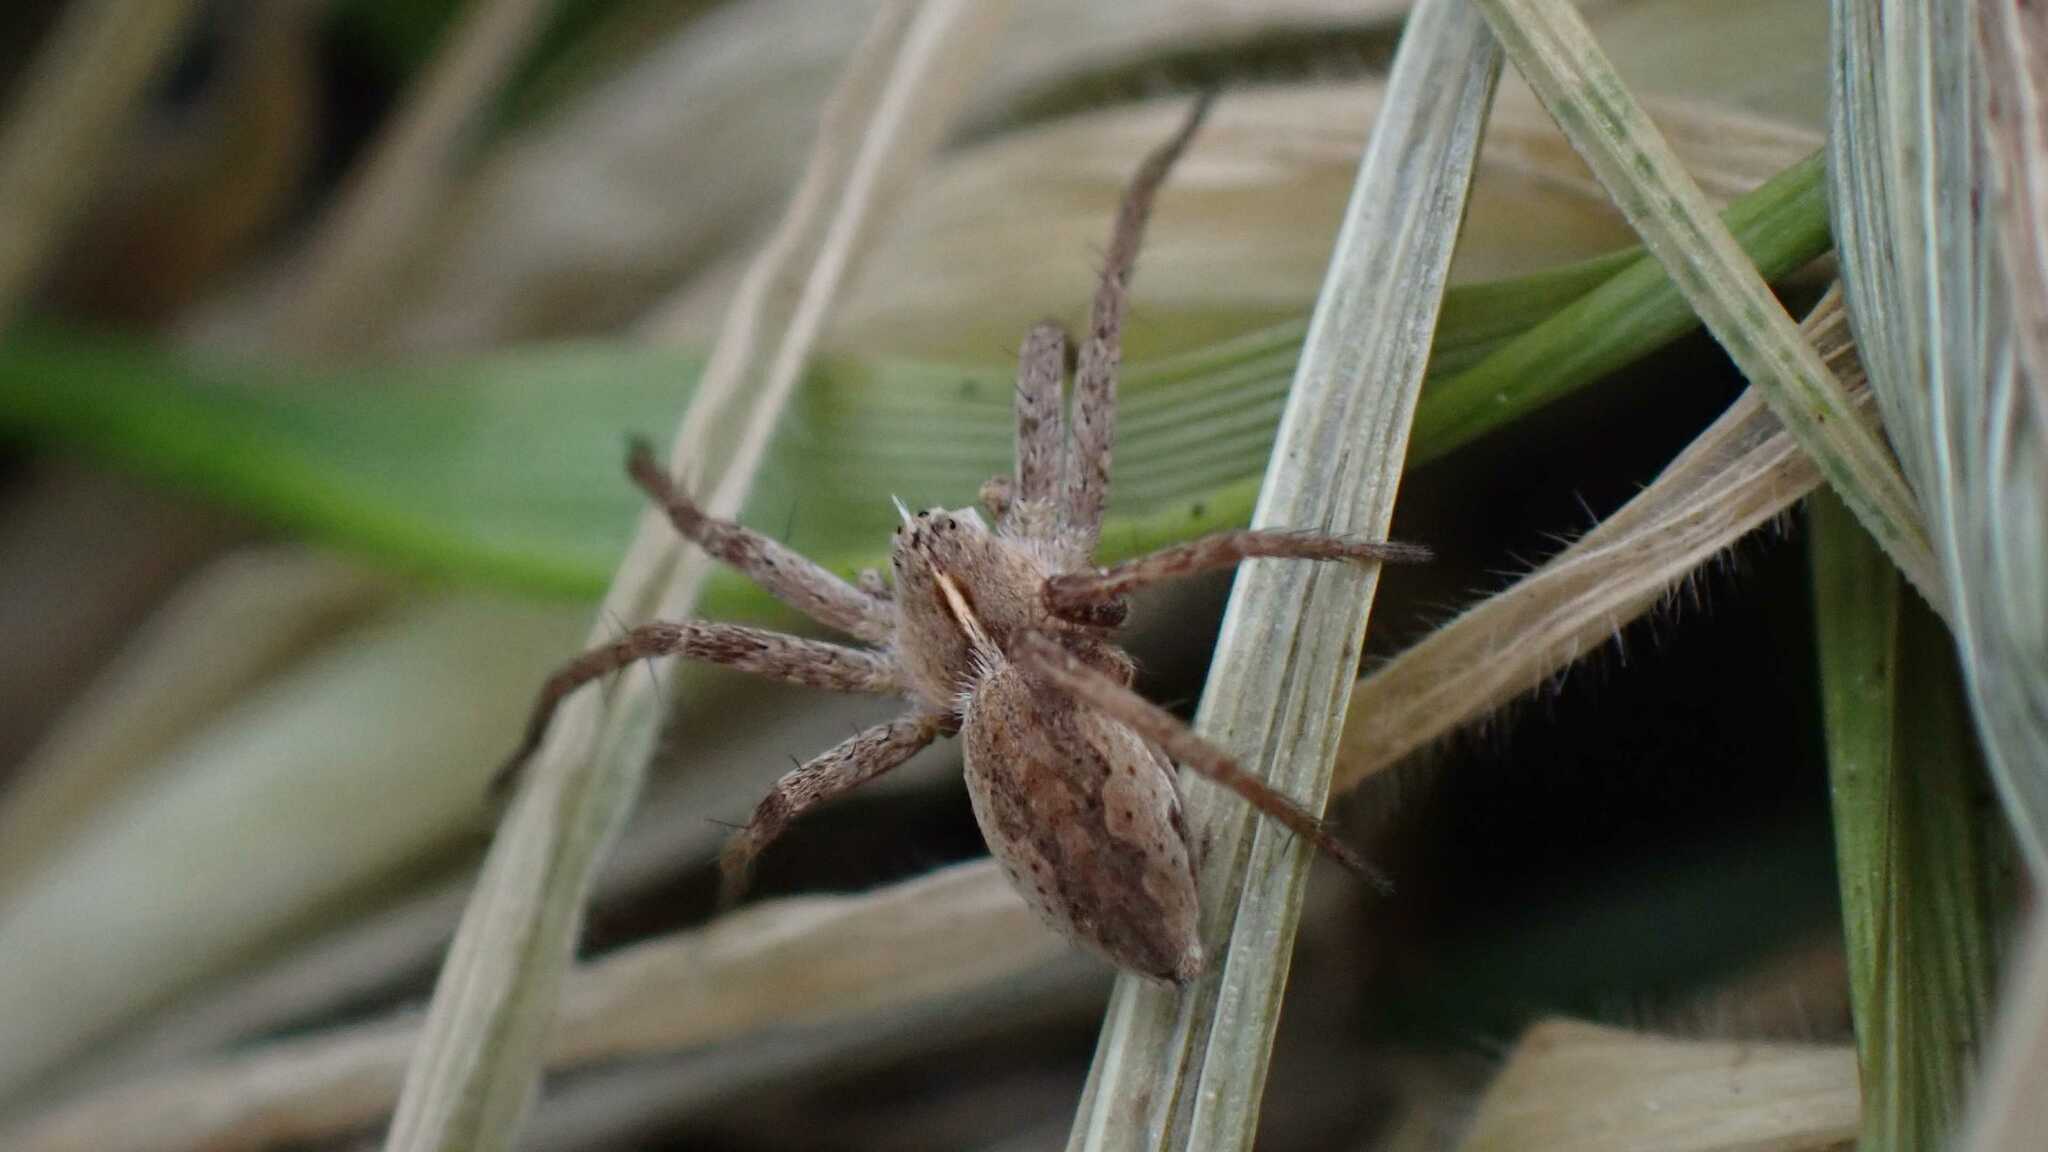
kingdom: Animalia
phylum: Arthropoda
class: Arachnida
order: Araneae
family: Pisauridae
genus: Pisaura
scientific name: Pisaura mirabilis
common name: Tent spider
